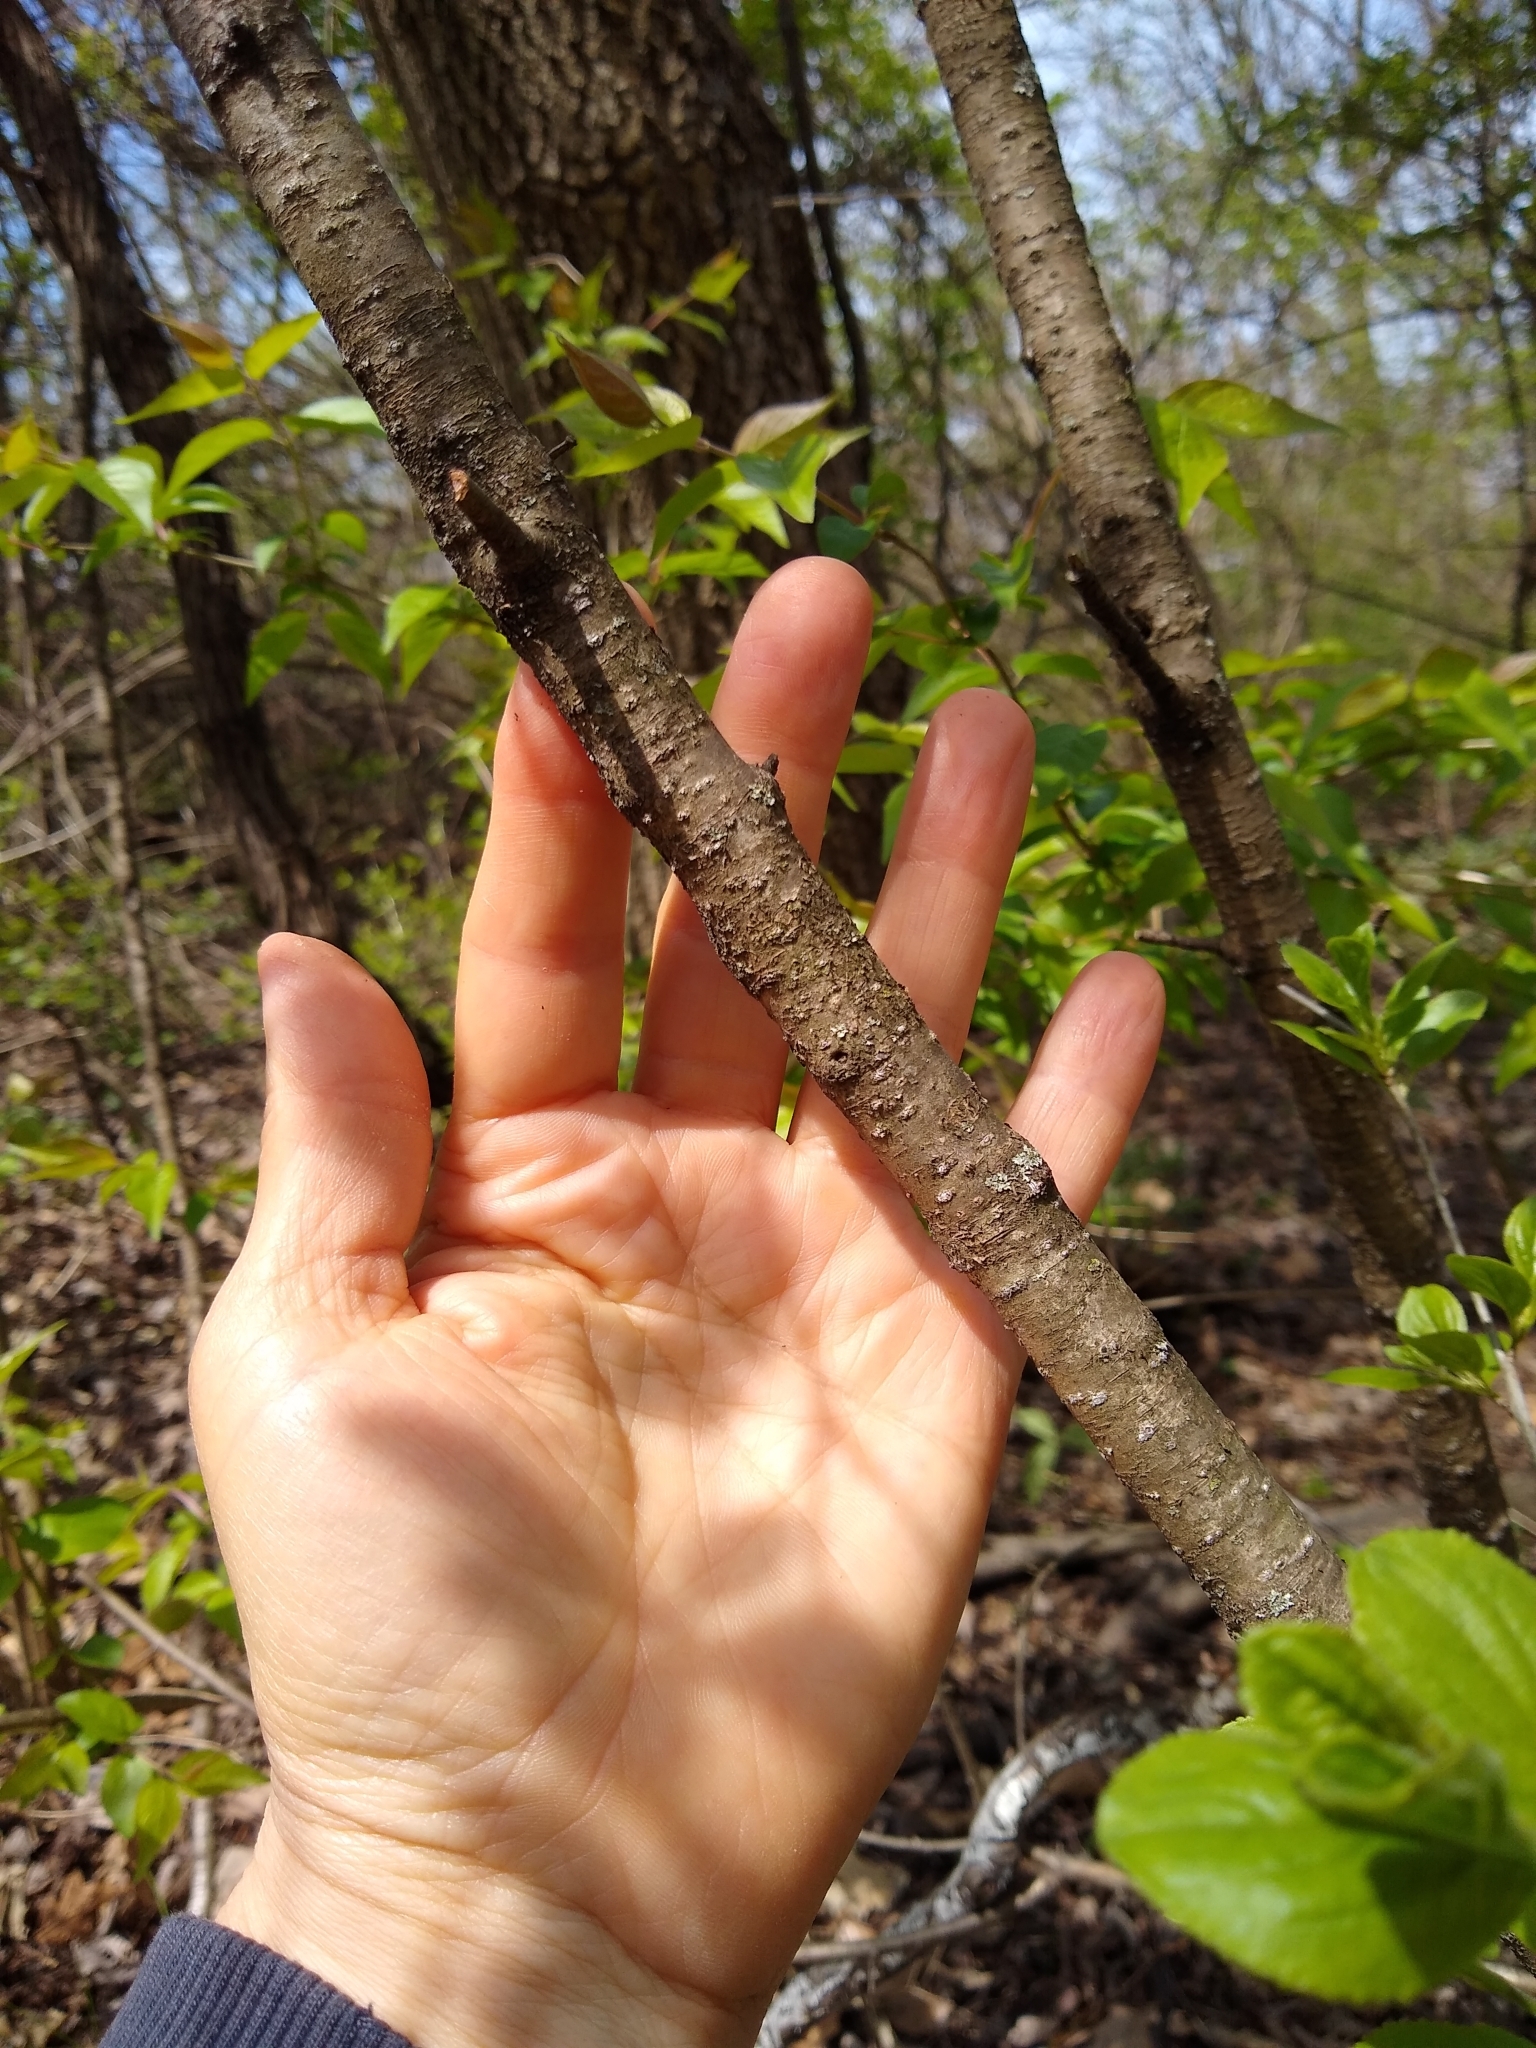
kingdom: Plantae
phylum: Tracheophyta
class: Magnoliopsida
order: Rosales
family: Rhamnaceae
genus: Rhamnus
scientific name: Rhamnus cathartica
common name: Common buckthorn
